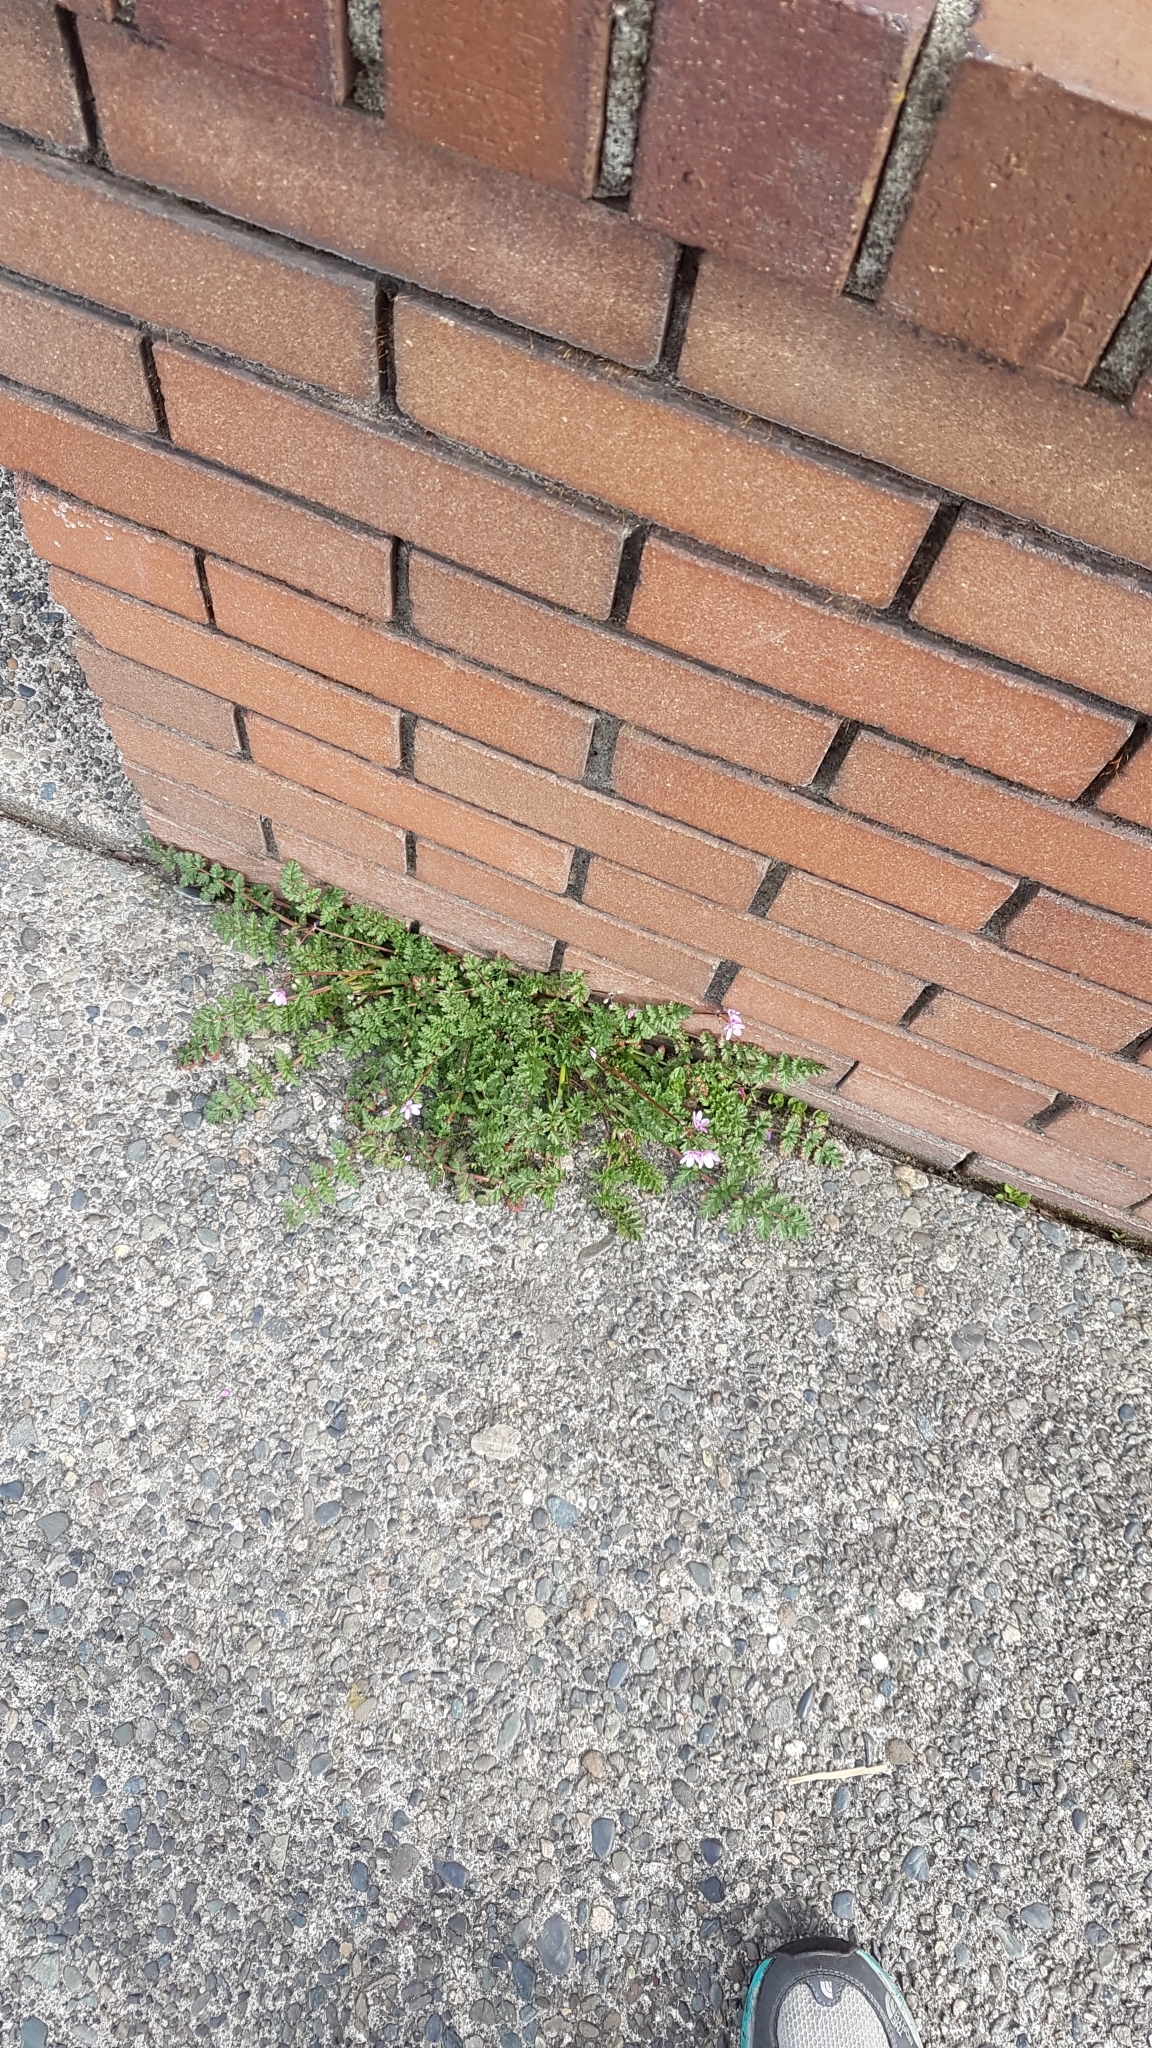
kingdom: Plantae
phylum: Tracheophyta
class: Magnoliopsida
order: Geraniales
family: Geraniaceae
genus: Erodium
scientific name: Erodium cicutarium
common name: Common stork's-bill
